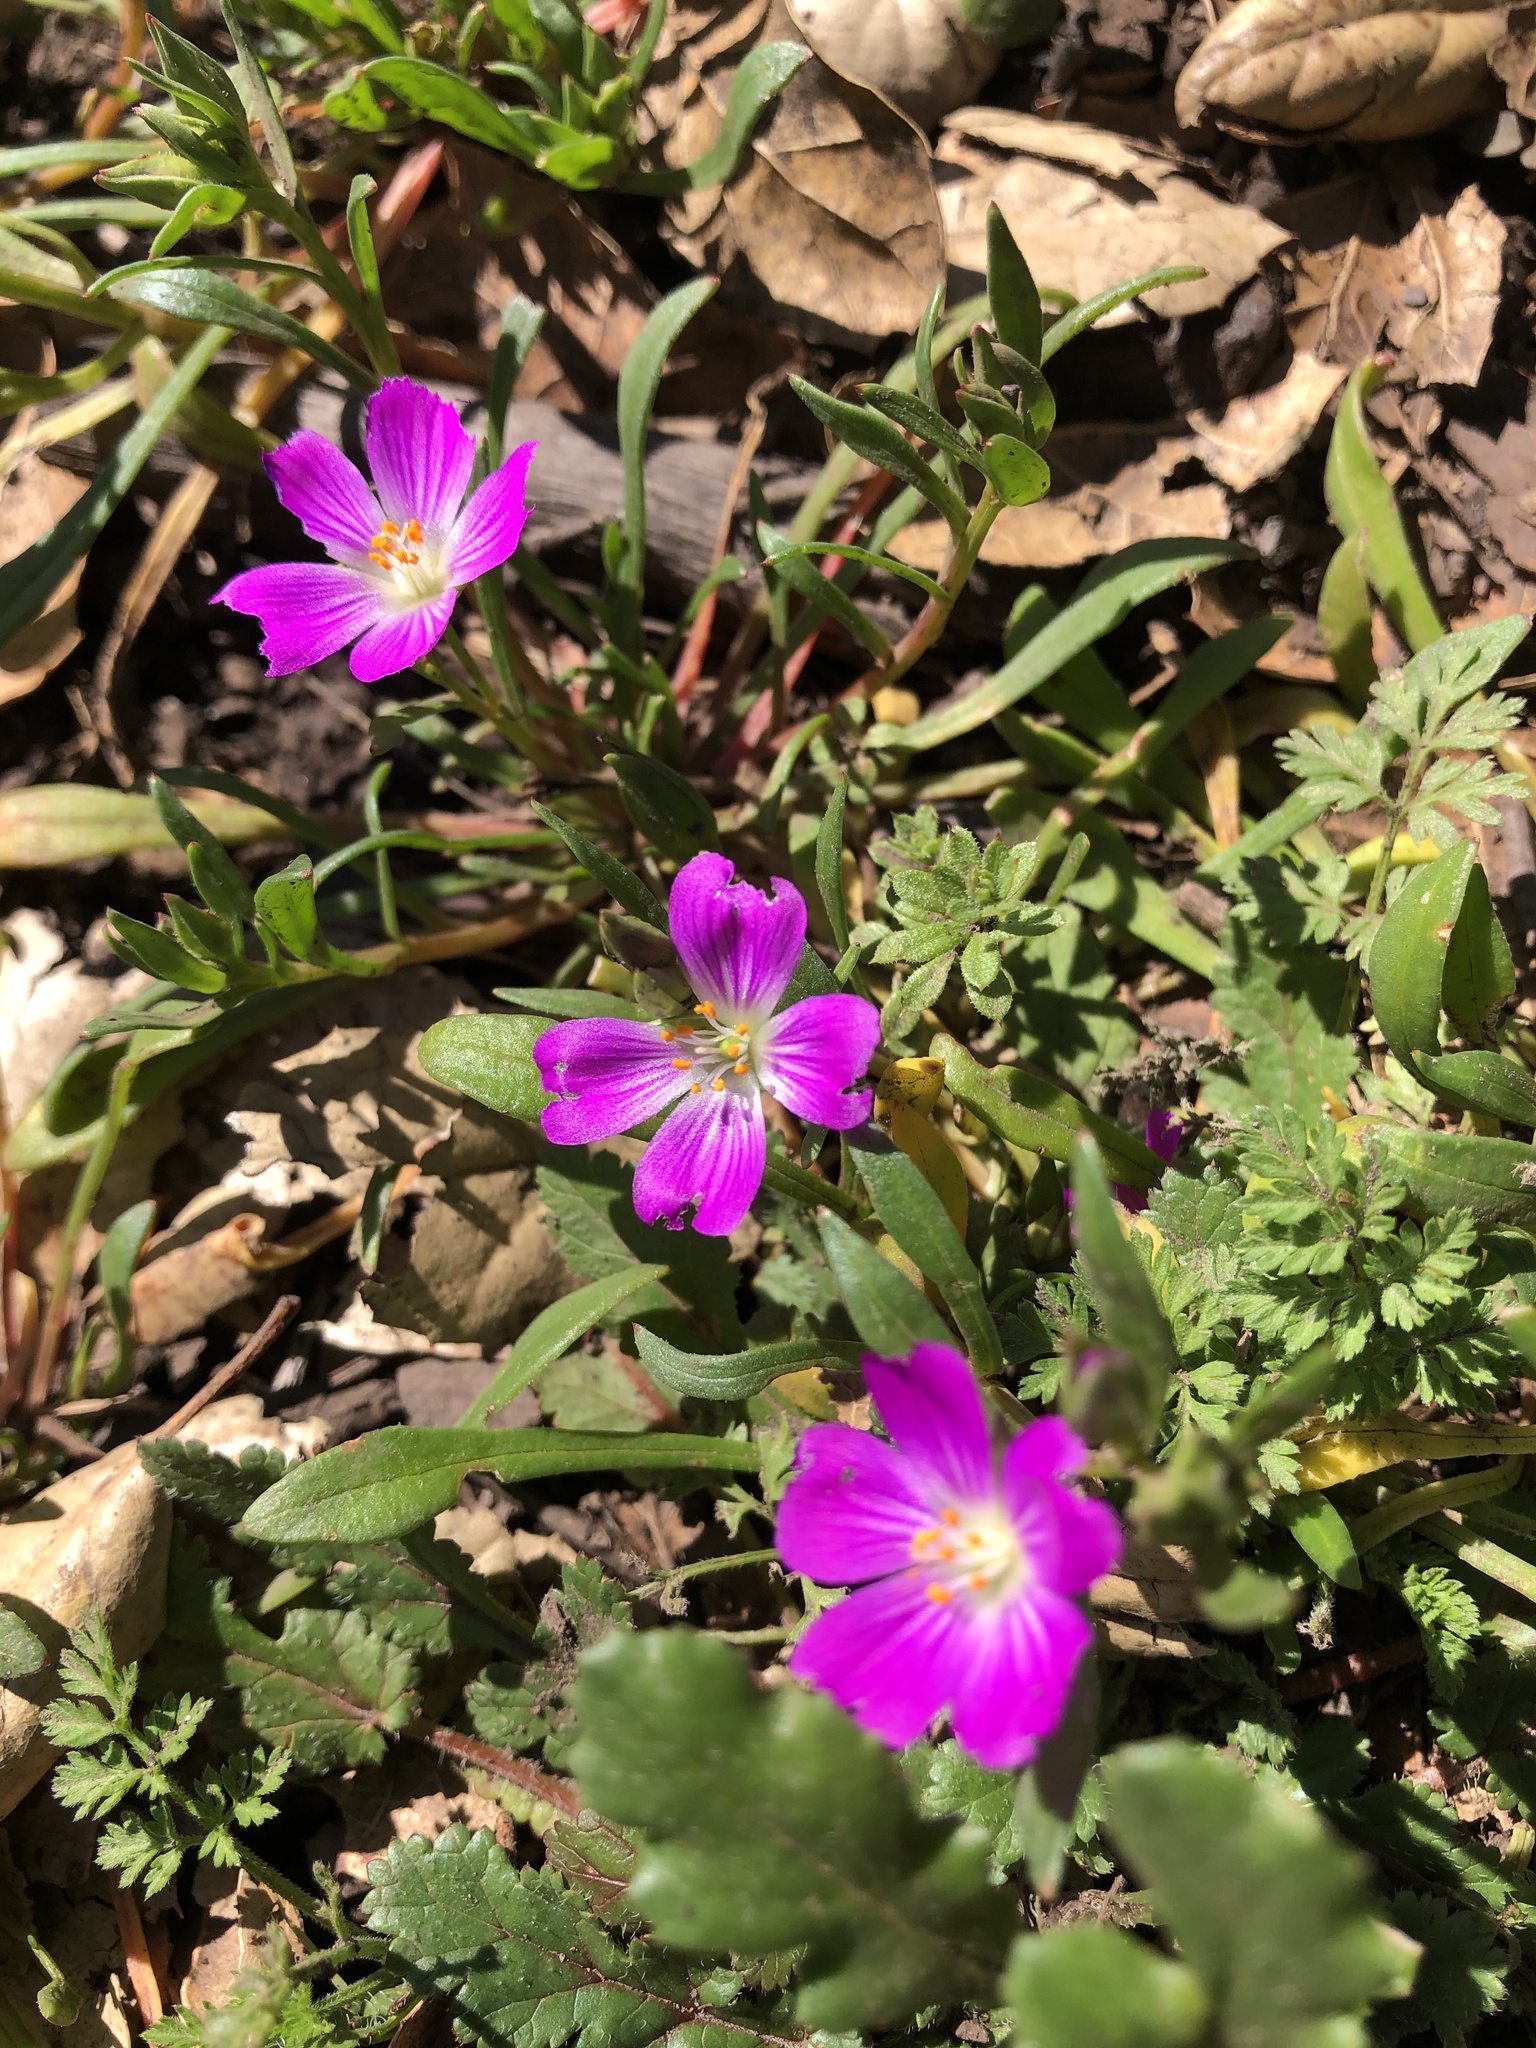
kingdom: Plantae
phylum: Tracheophyta
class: Magnoliopsida
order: Caryophyllales
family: Montiaceae
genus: Calandrinia
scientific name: Calandrinia menziesii
